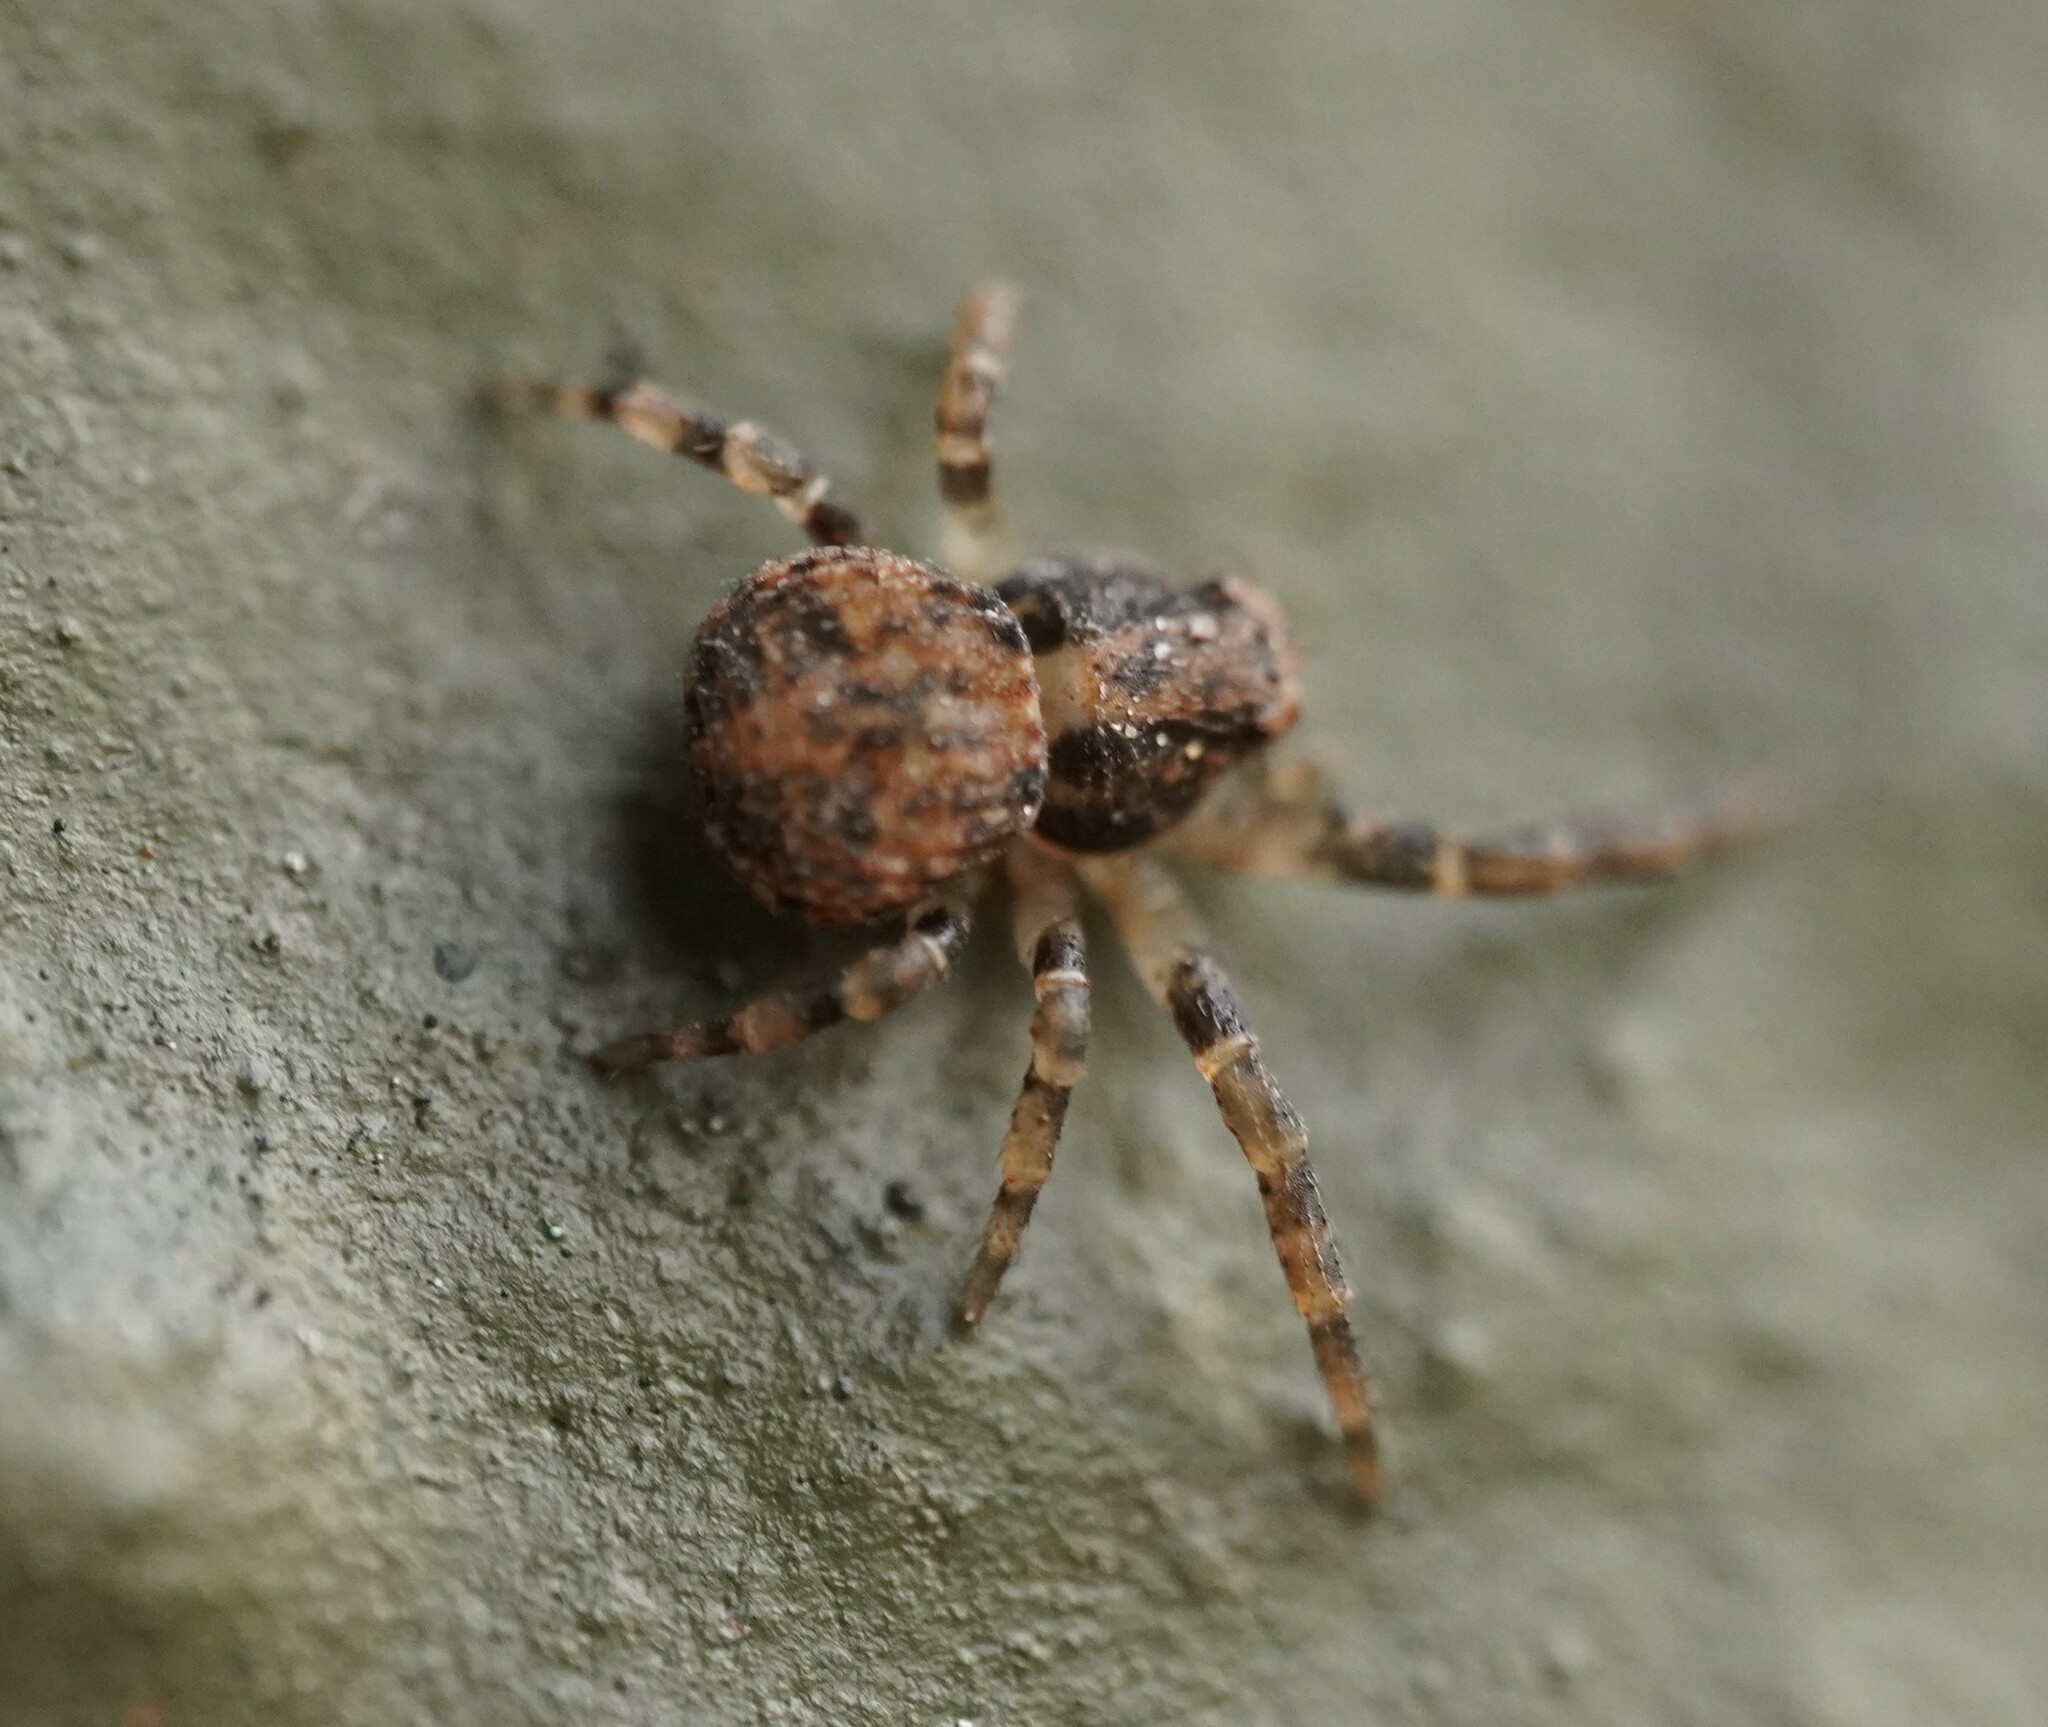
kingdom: Animalia
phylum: Arthropoda
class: Arachnida
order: Araneae
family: Thomisidae
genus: Ozyptila
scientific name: Ozyptila
